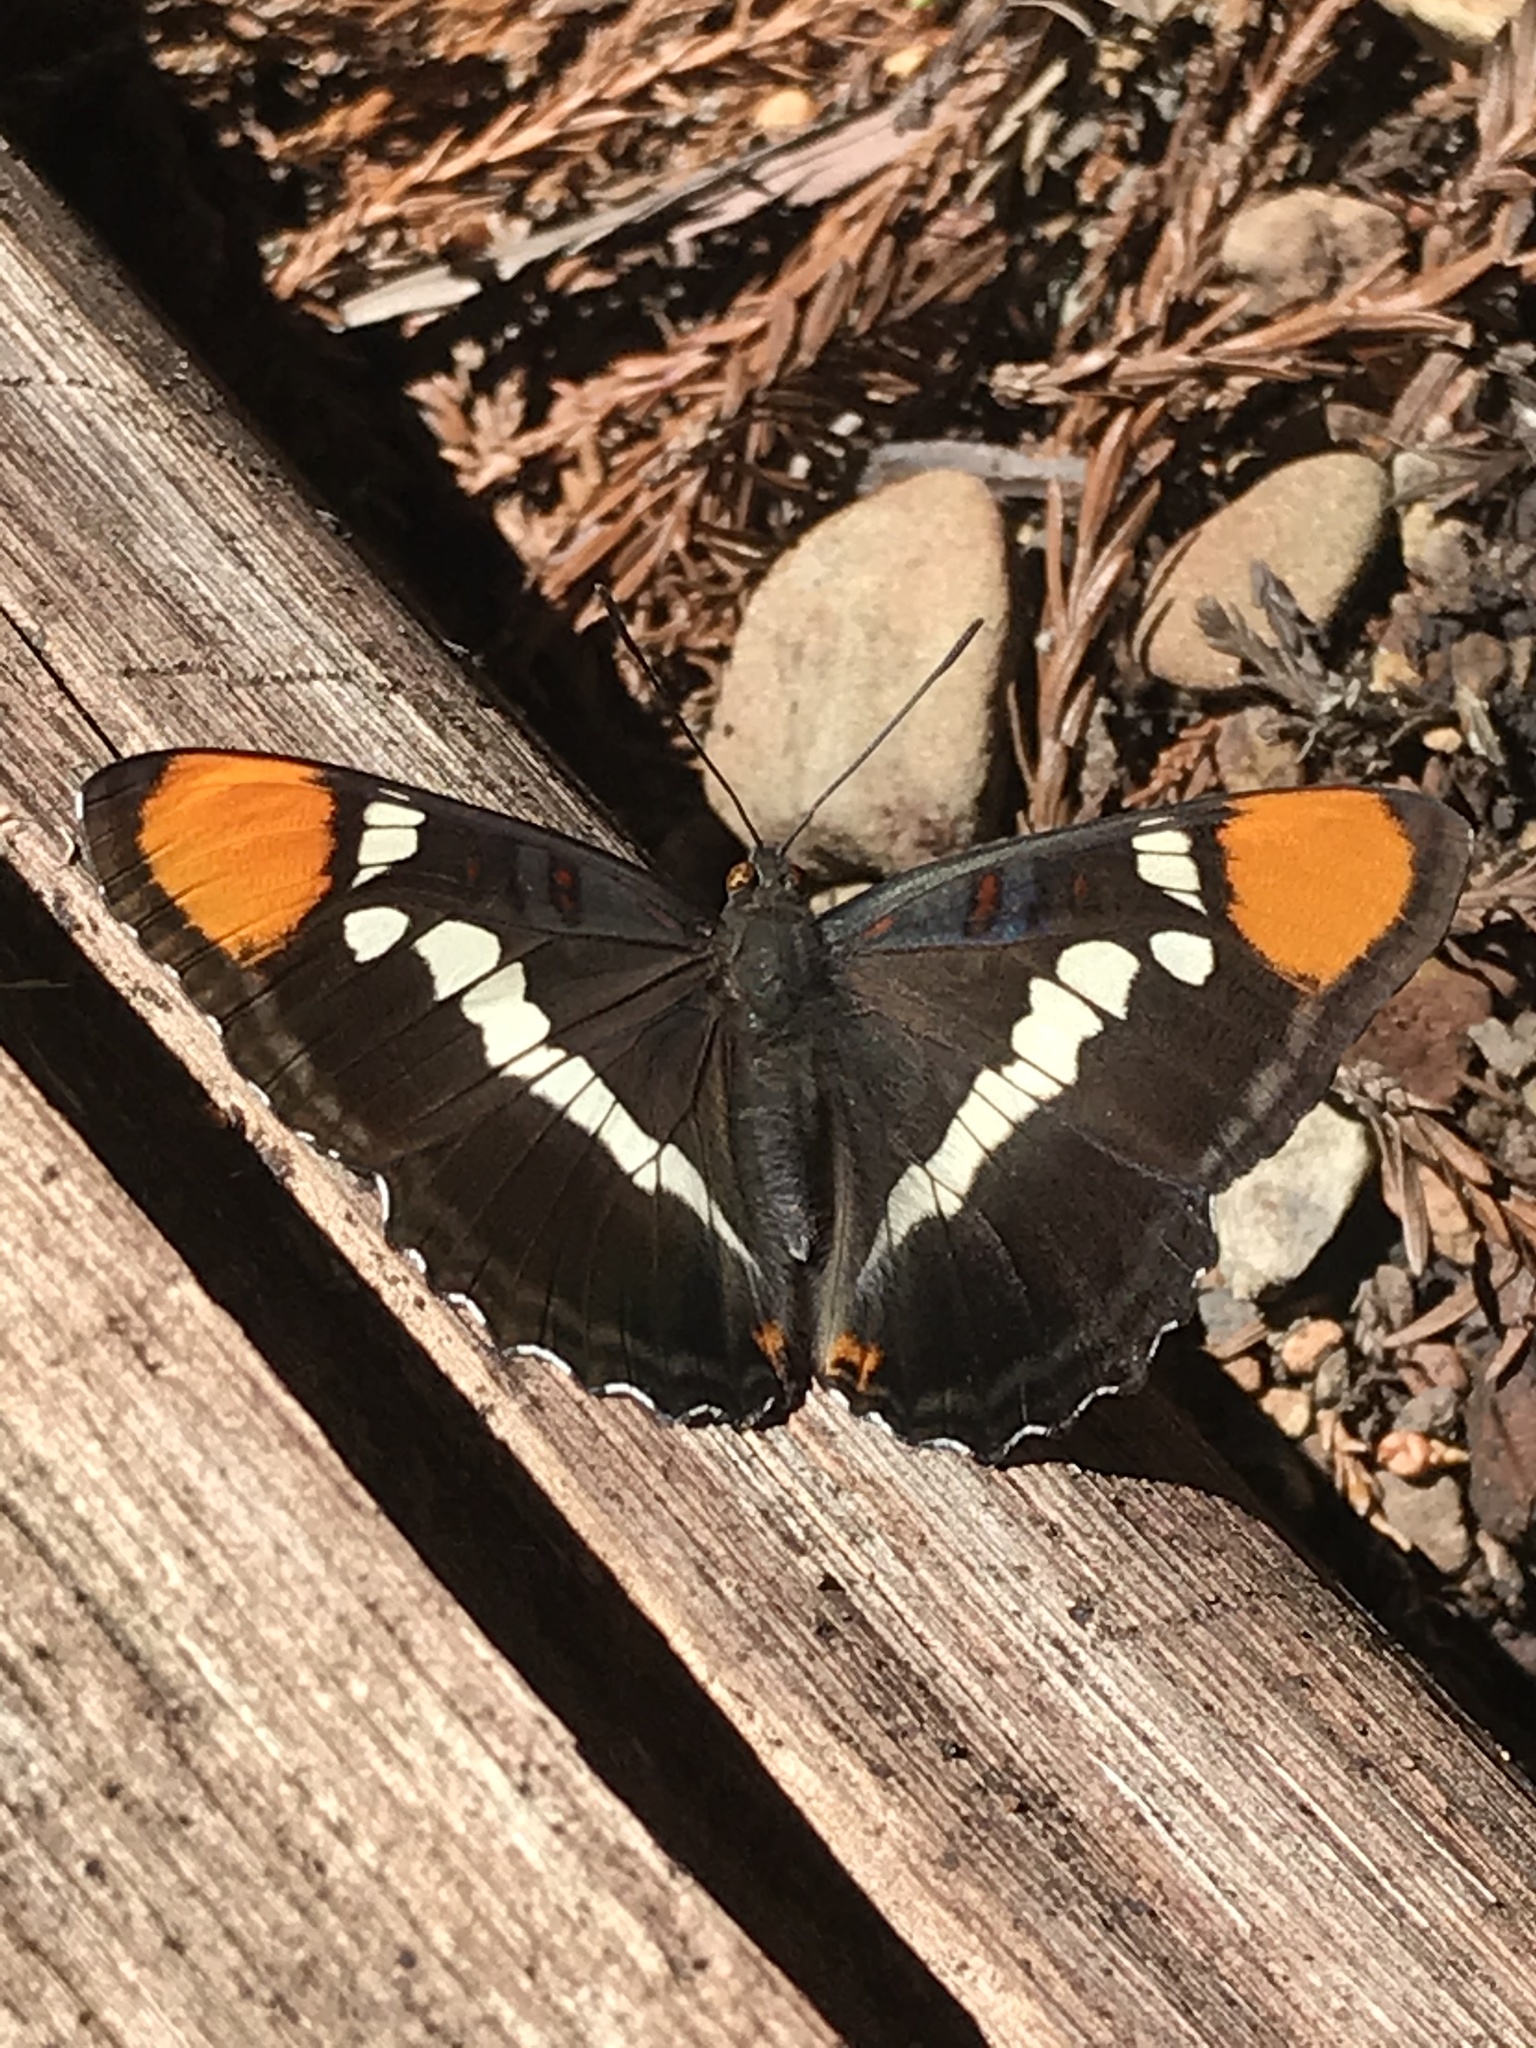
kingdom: Animalia
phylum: Arthropoda
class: Insecta
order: Lepidoptera
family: Nymphalidae
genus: Limenitis
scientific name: Limenitis bredowii
